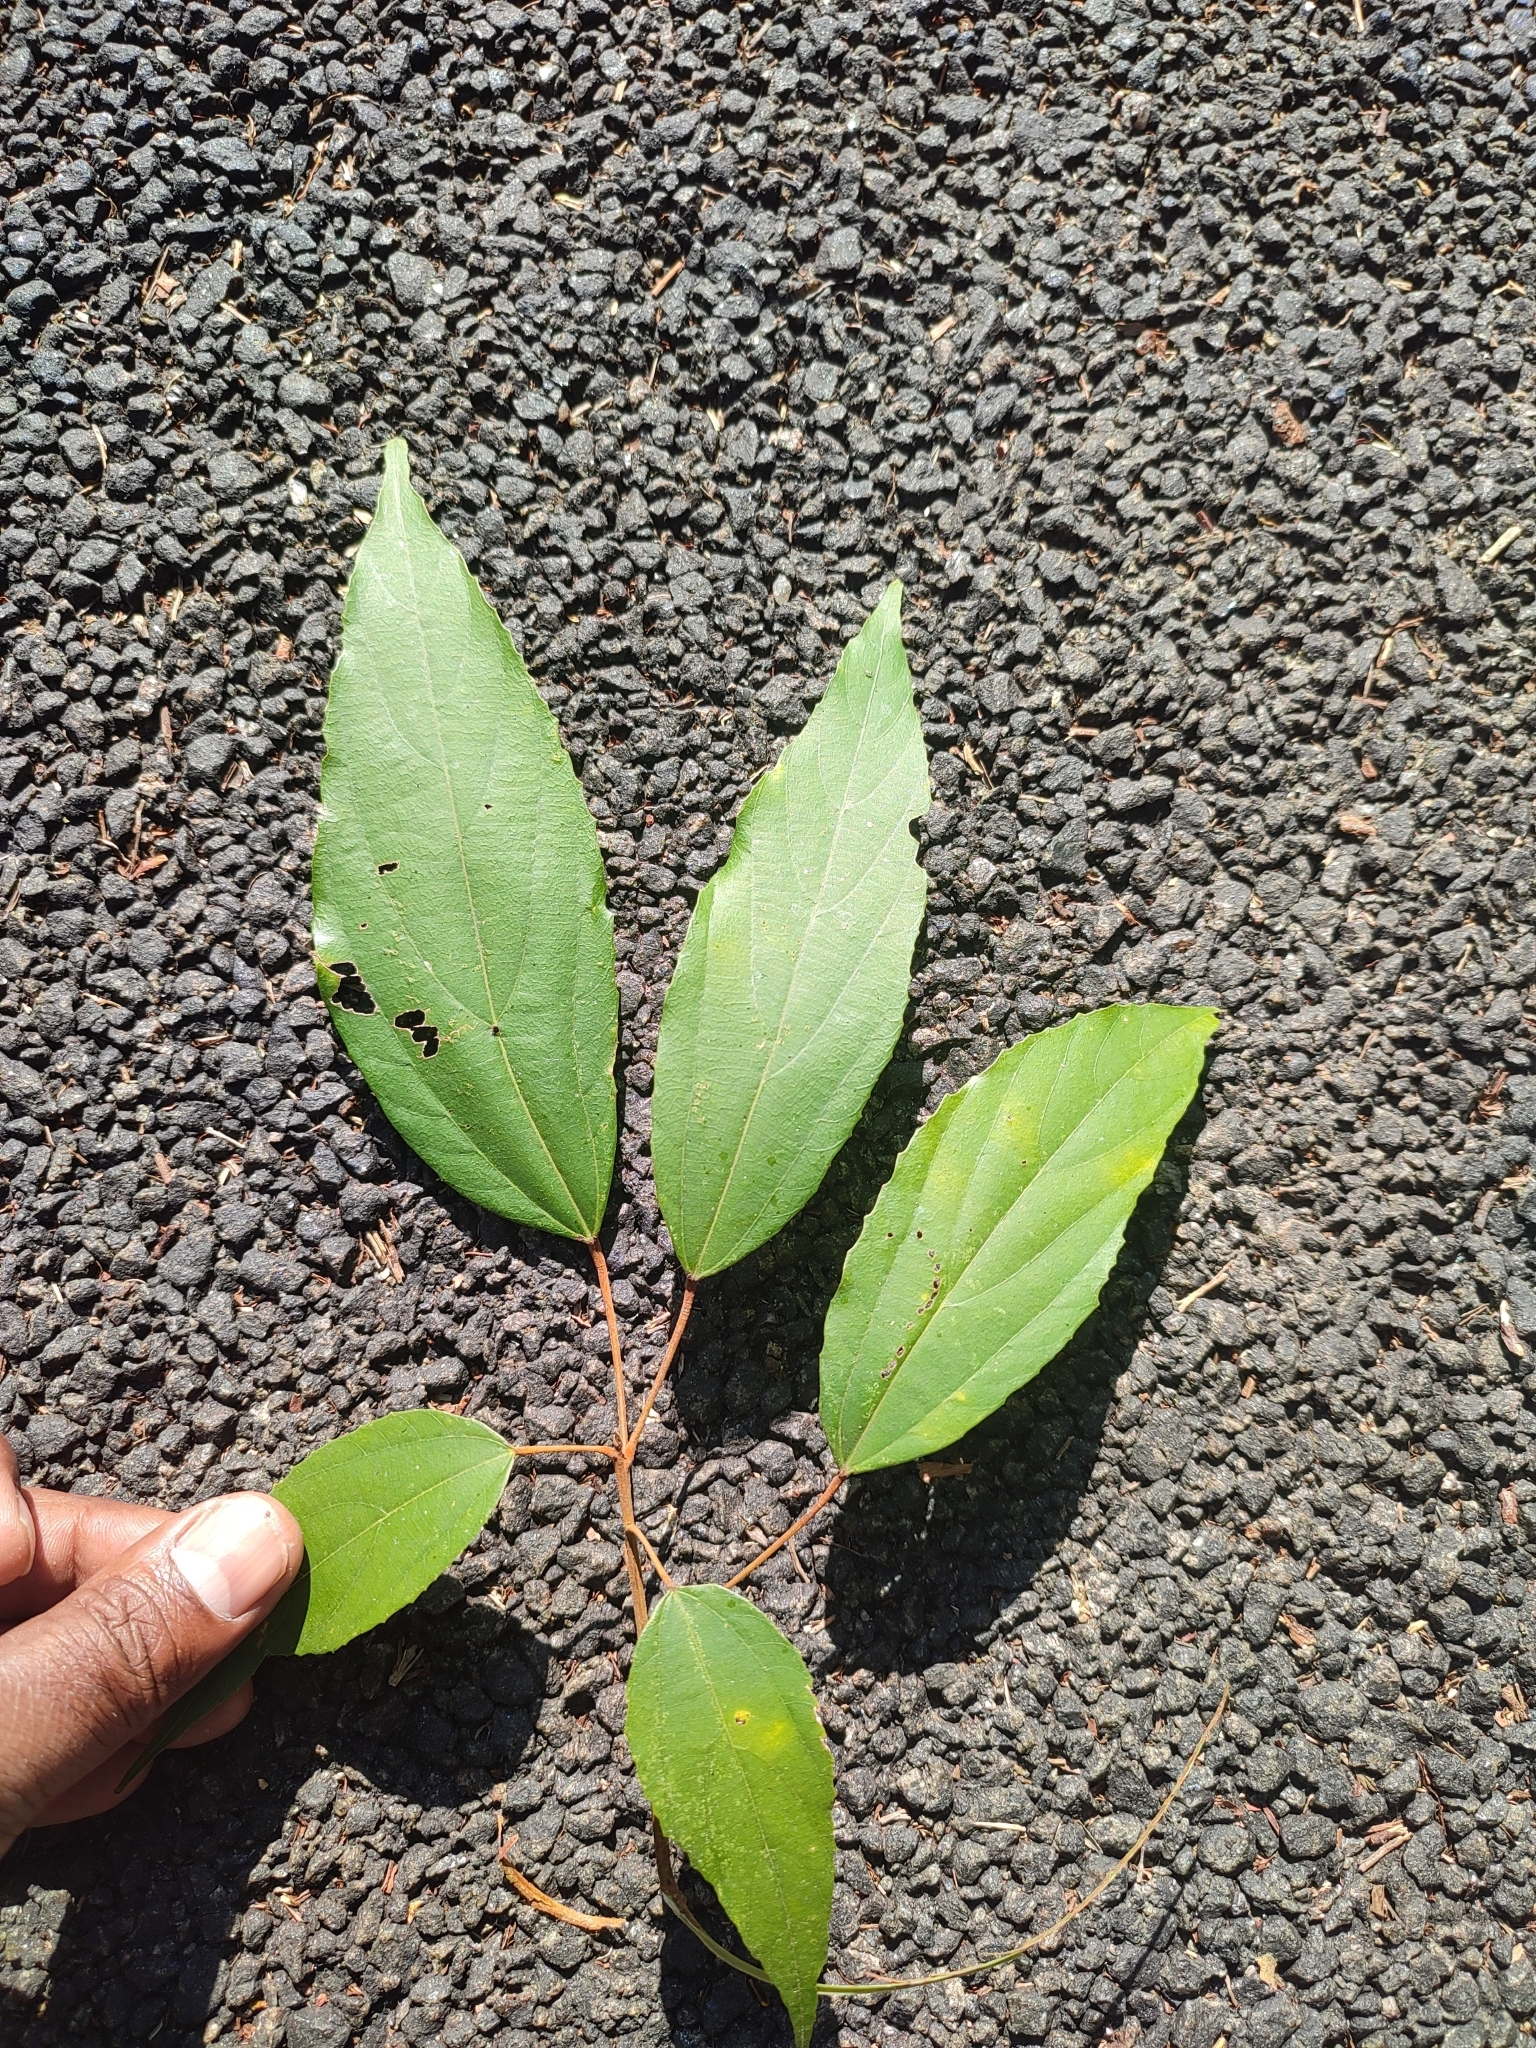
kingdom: Plantae
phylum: Tracheophyta
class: Magnoliopsida
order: Malpighiales
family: Euphorbiaceae
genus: Mallotus
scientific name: Mallotus philippensis
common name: Kamala tree
